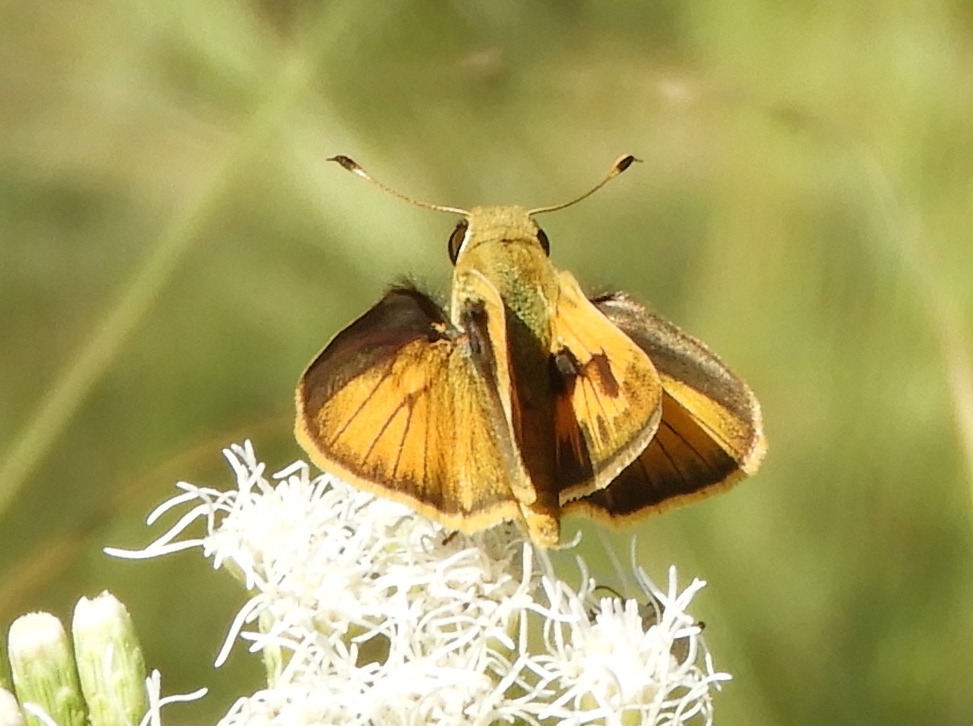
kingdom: Animalia
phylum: Arthropoda
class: Insecta
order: Lepidoptera
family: Hesperiidae
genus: Polites
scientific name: Polites vibex
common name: Whirlabout
